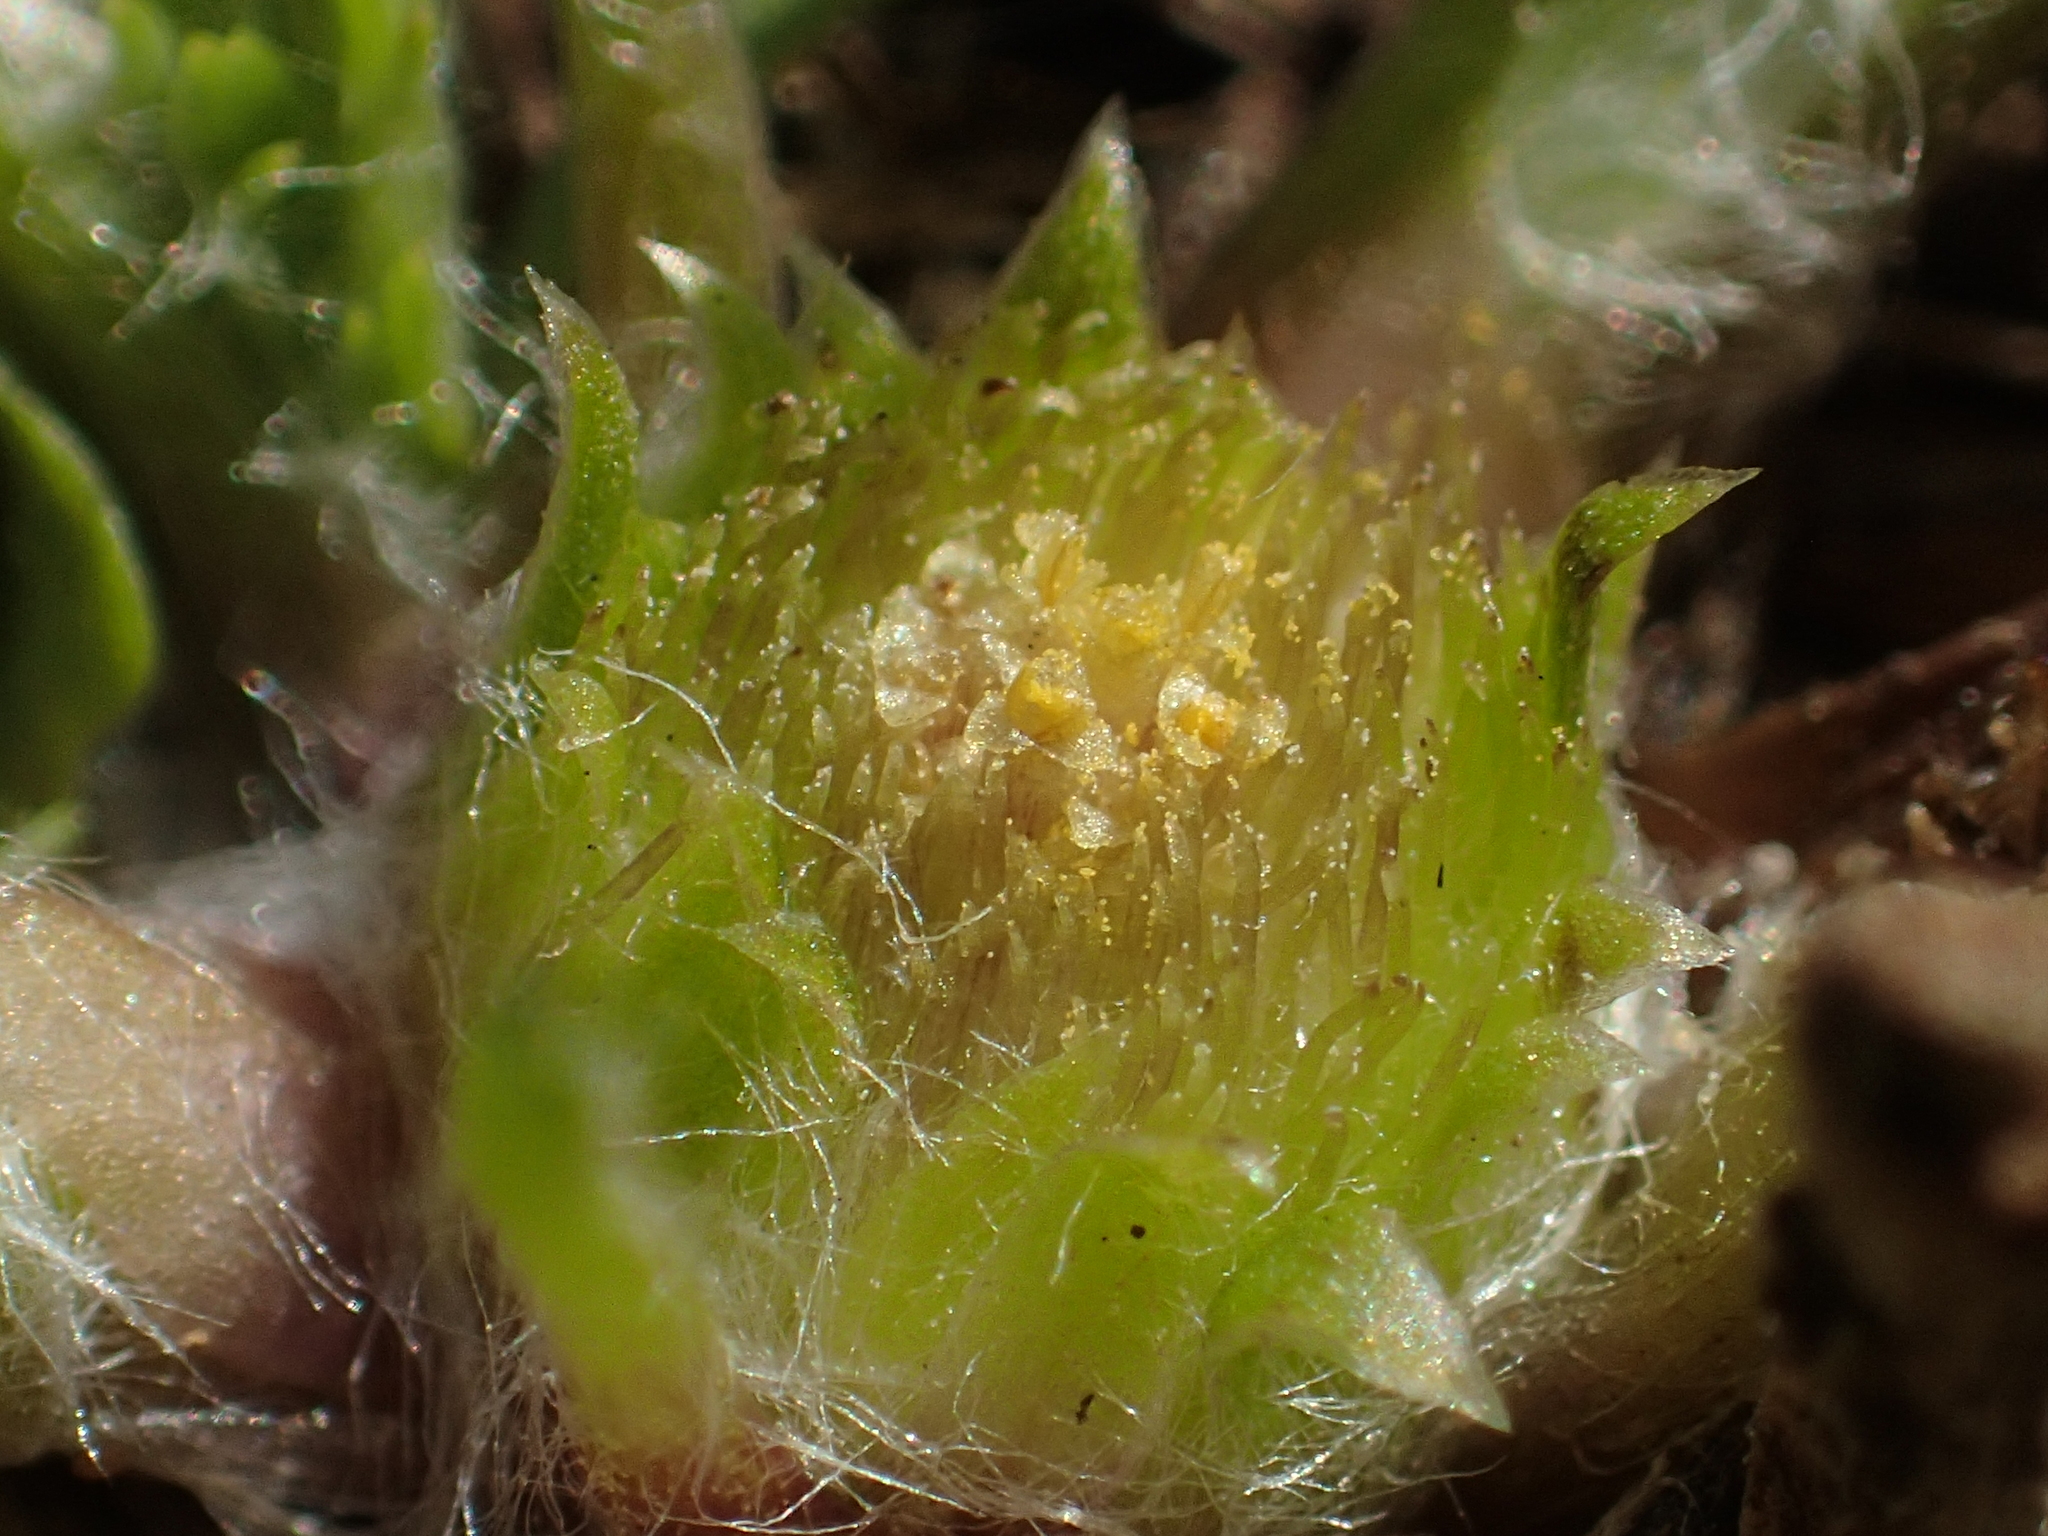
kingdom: Plantae
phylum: Tracheophyta
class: Magnoliopsida
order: Asterales
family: Asteraceae
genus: Soliva
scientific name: Soliva anthemifolia
